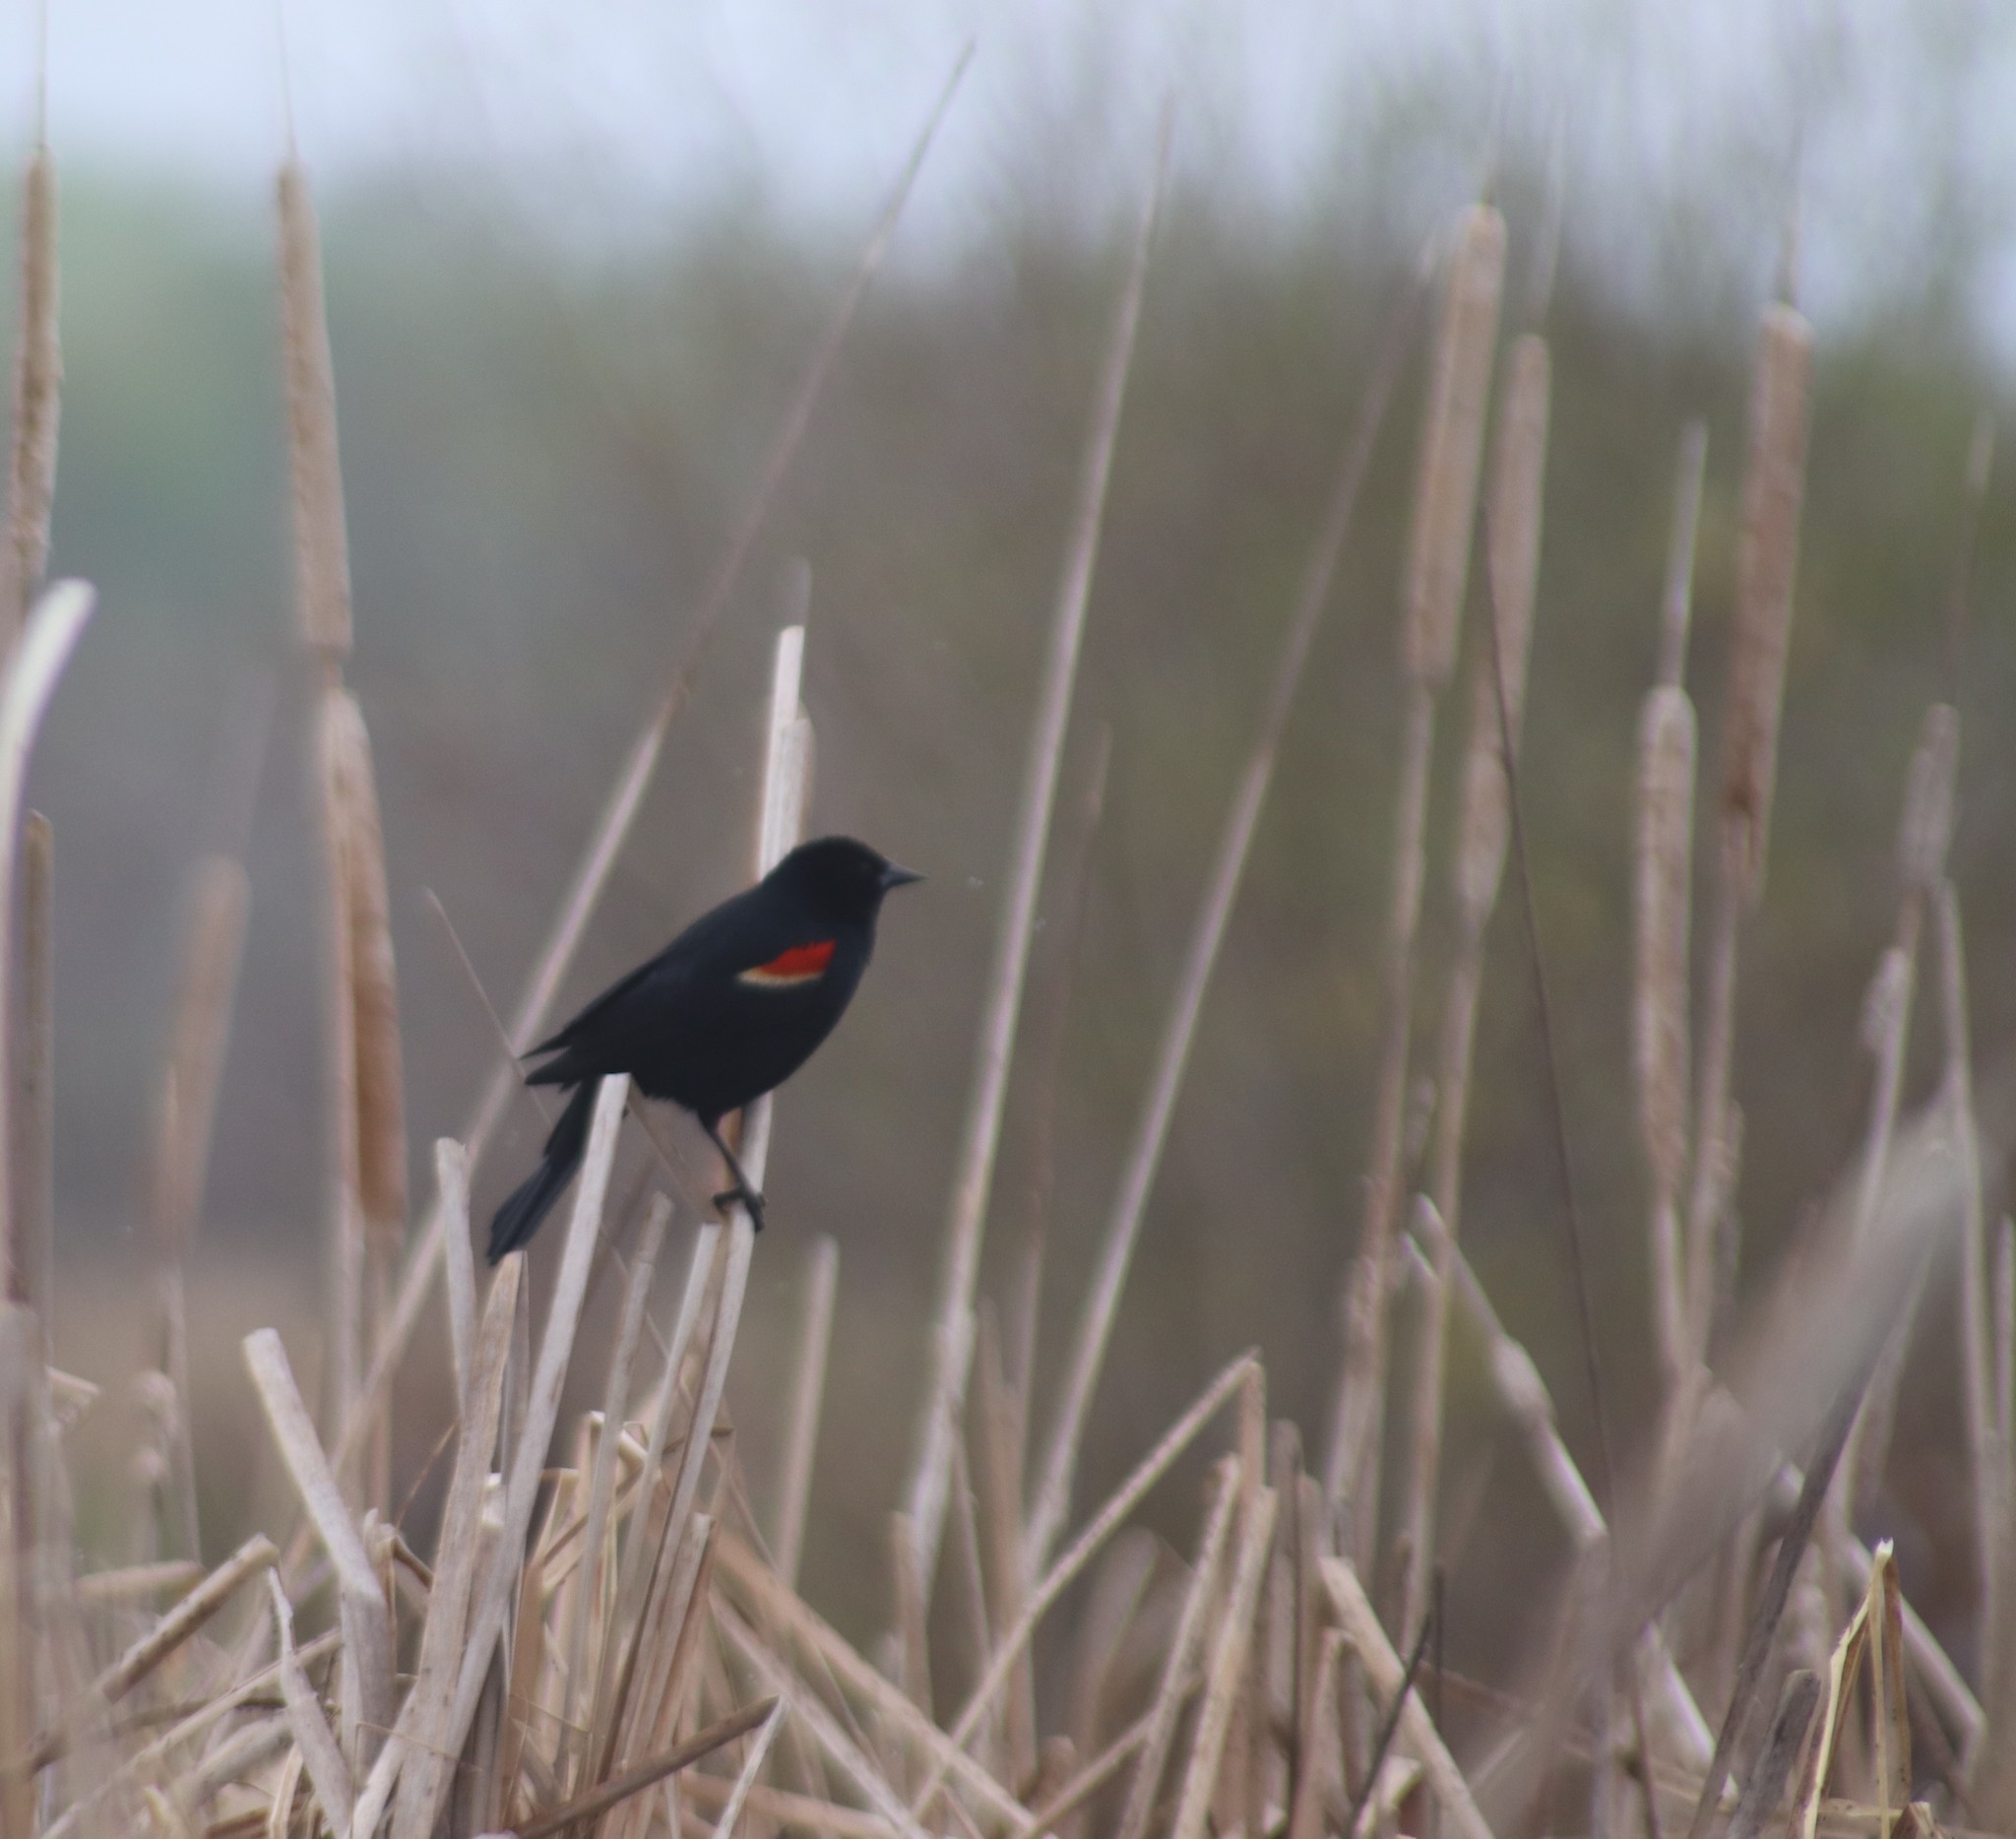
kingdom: Animalia
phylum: Chordata
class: Aves
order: Passeriformes
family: Icteridae
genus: Agelaius
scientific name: Agelaius phoeniceus
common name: Red-winged blackbird
